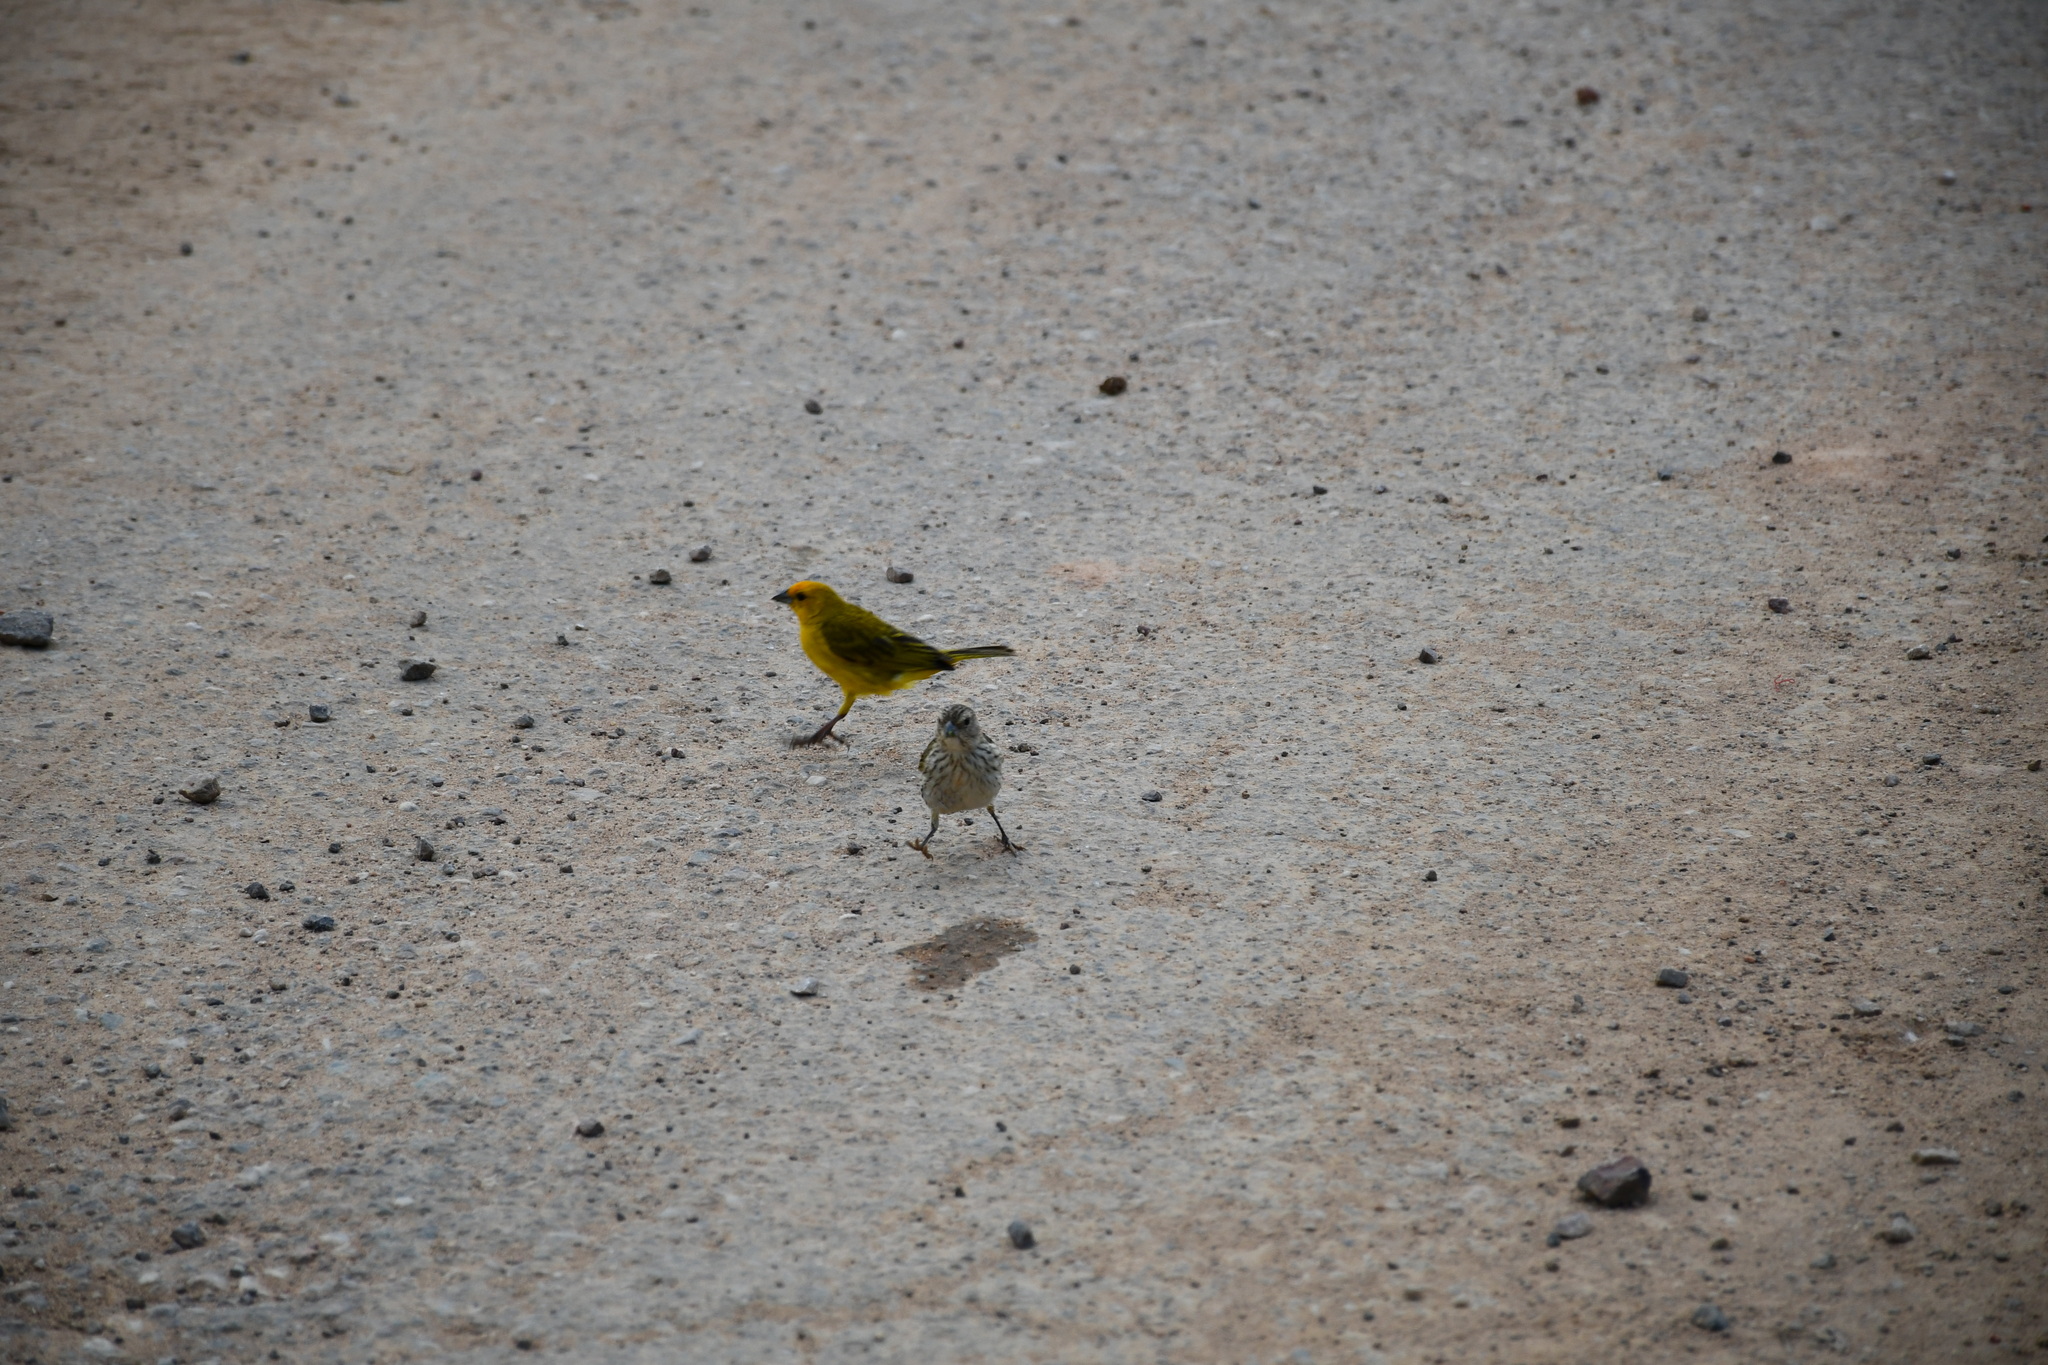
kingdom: Animalia
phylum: Chordata
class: Aves
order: Passeriformes
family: Thraupidae
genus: Sicalis
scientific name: Sicalis flaveola
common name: Saffron finch
